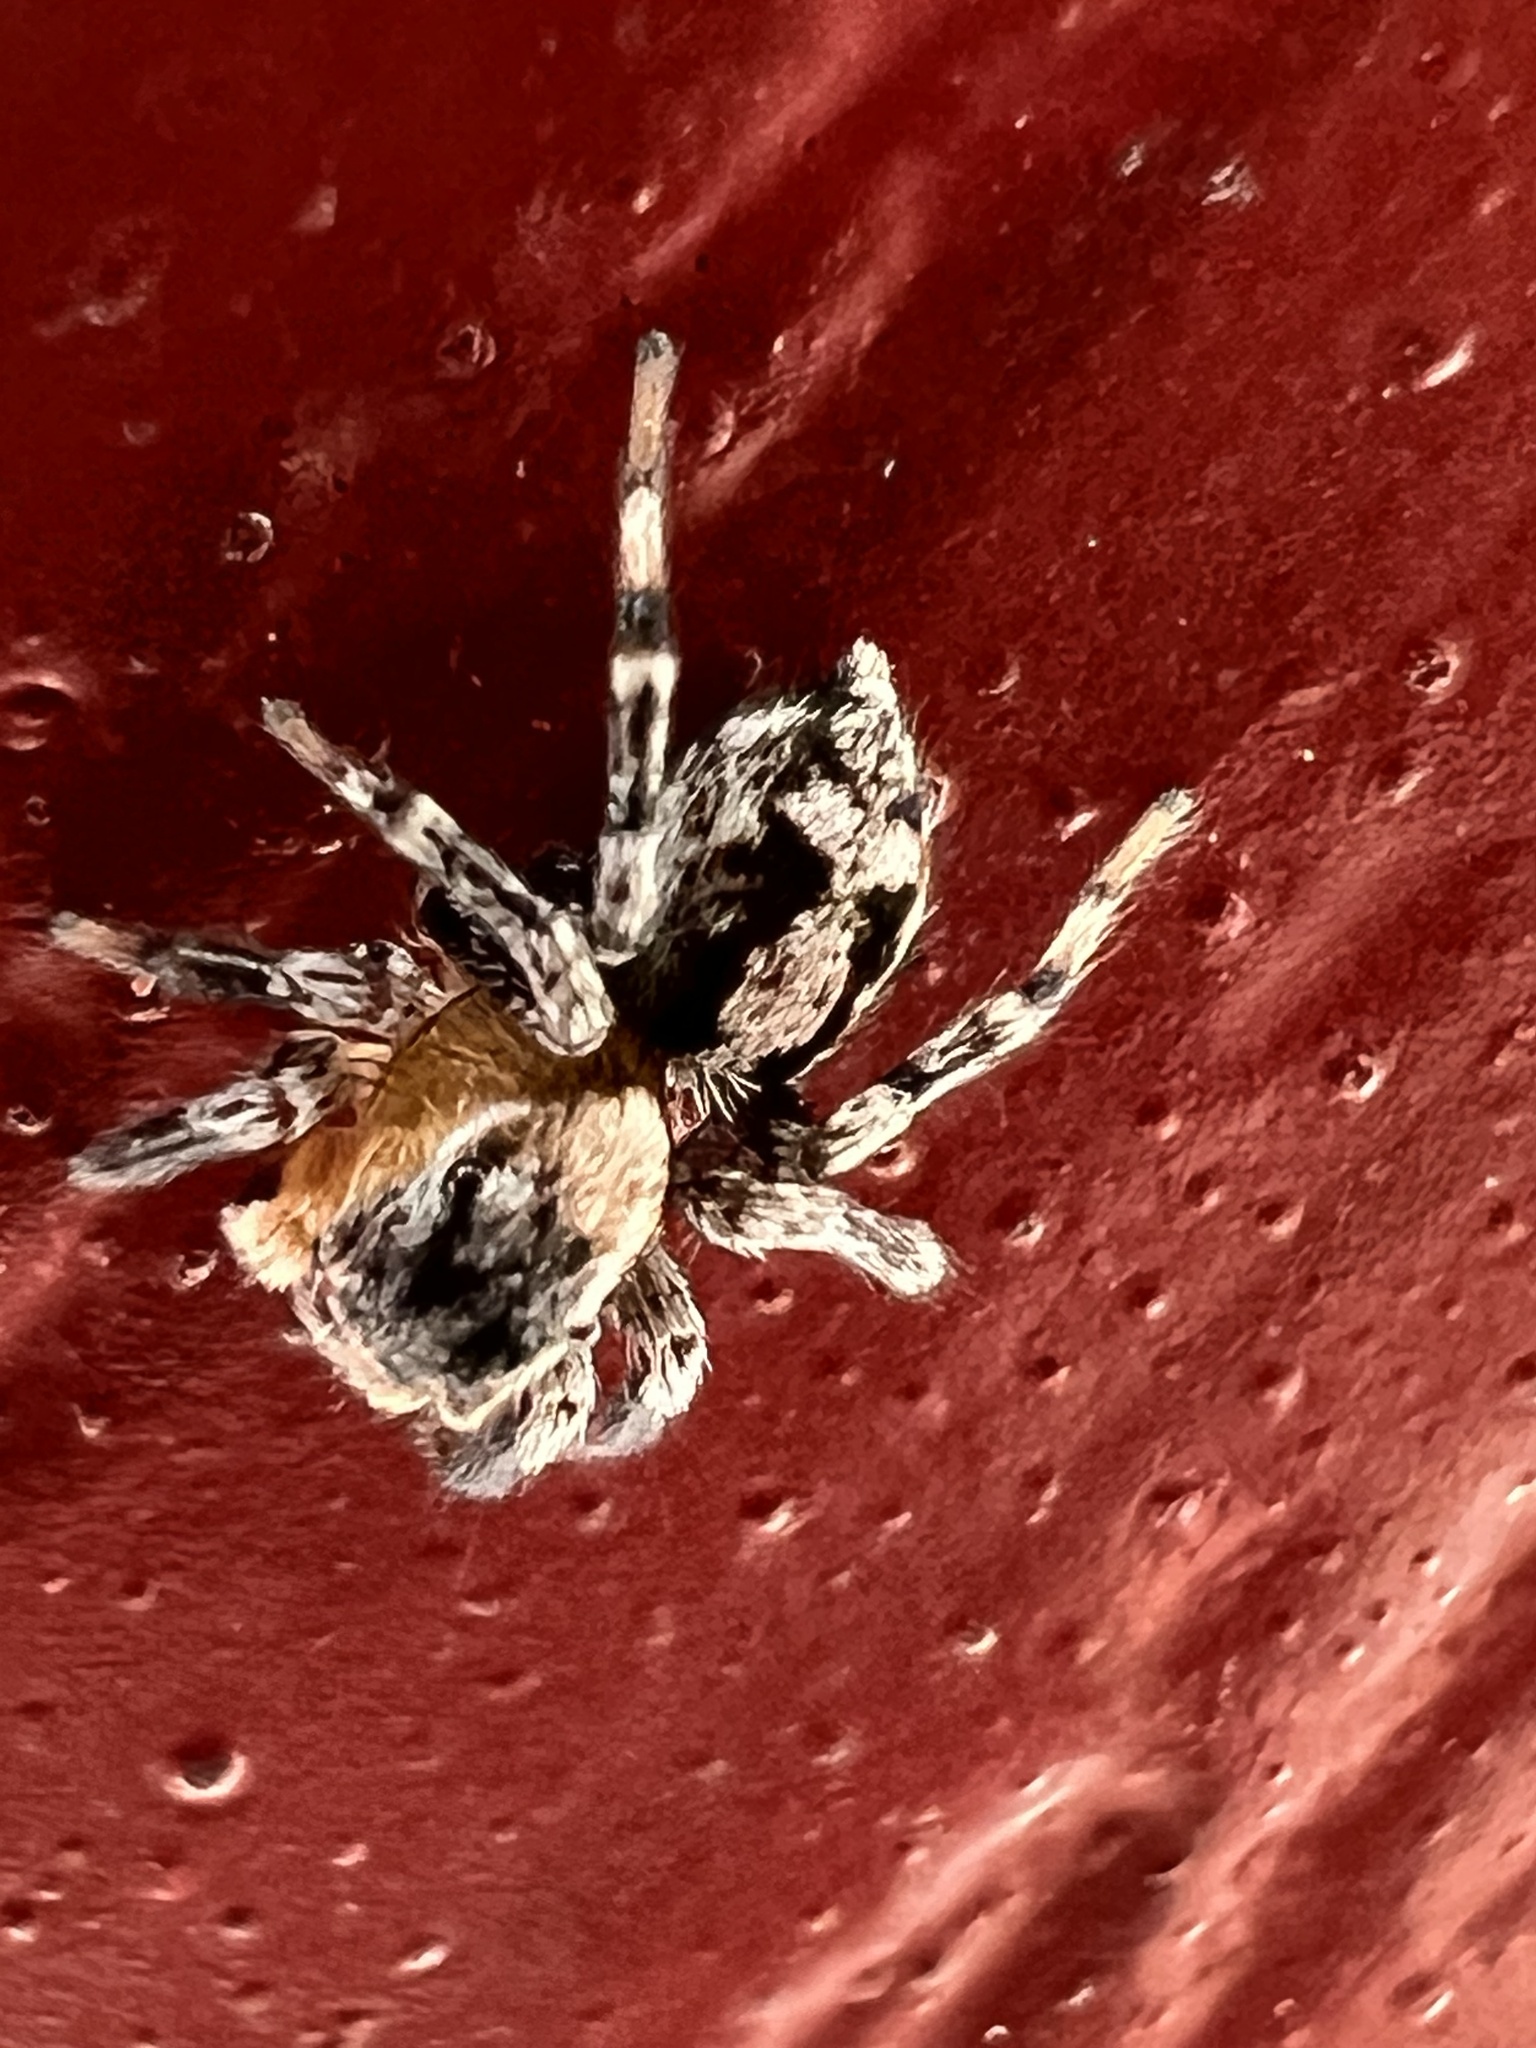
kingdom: Animalia
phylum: Arthropoda
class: Arachnida
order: Araneae
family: Salticidae
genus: Naphrys
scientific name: Naphrys pulex
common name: Flea jumping spider
